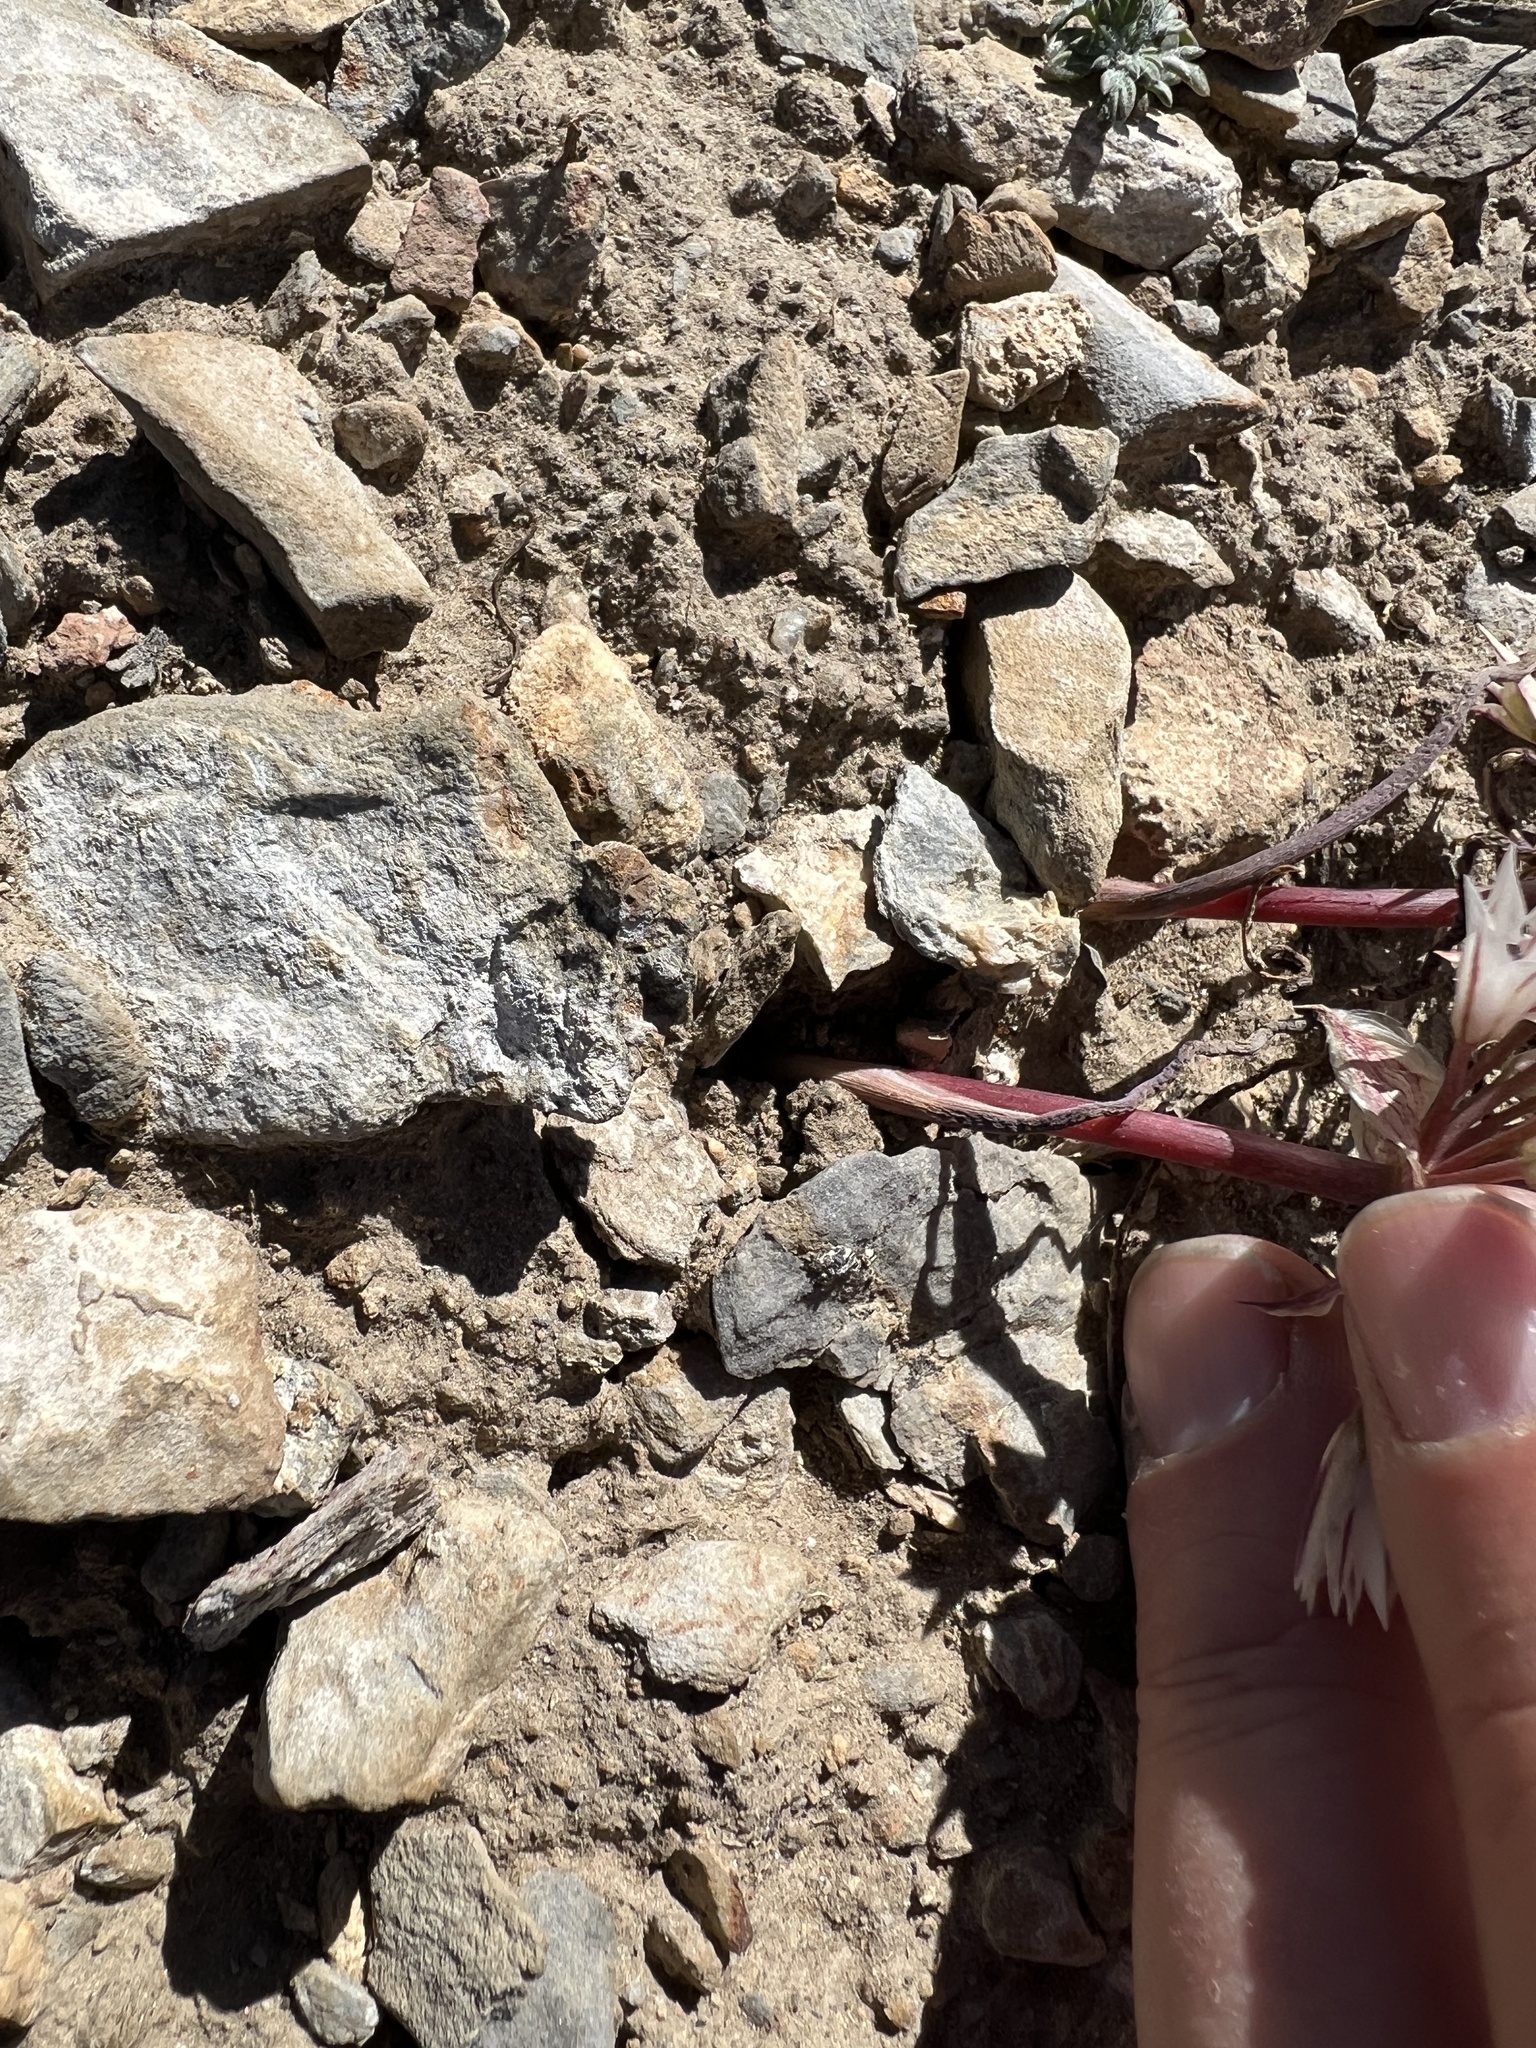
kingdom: Plantae
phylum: Tracheophyta
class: Liliopsida
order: Asparagales
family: Amaryllidaceae
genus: Allium
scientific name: Allium atrorubens
